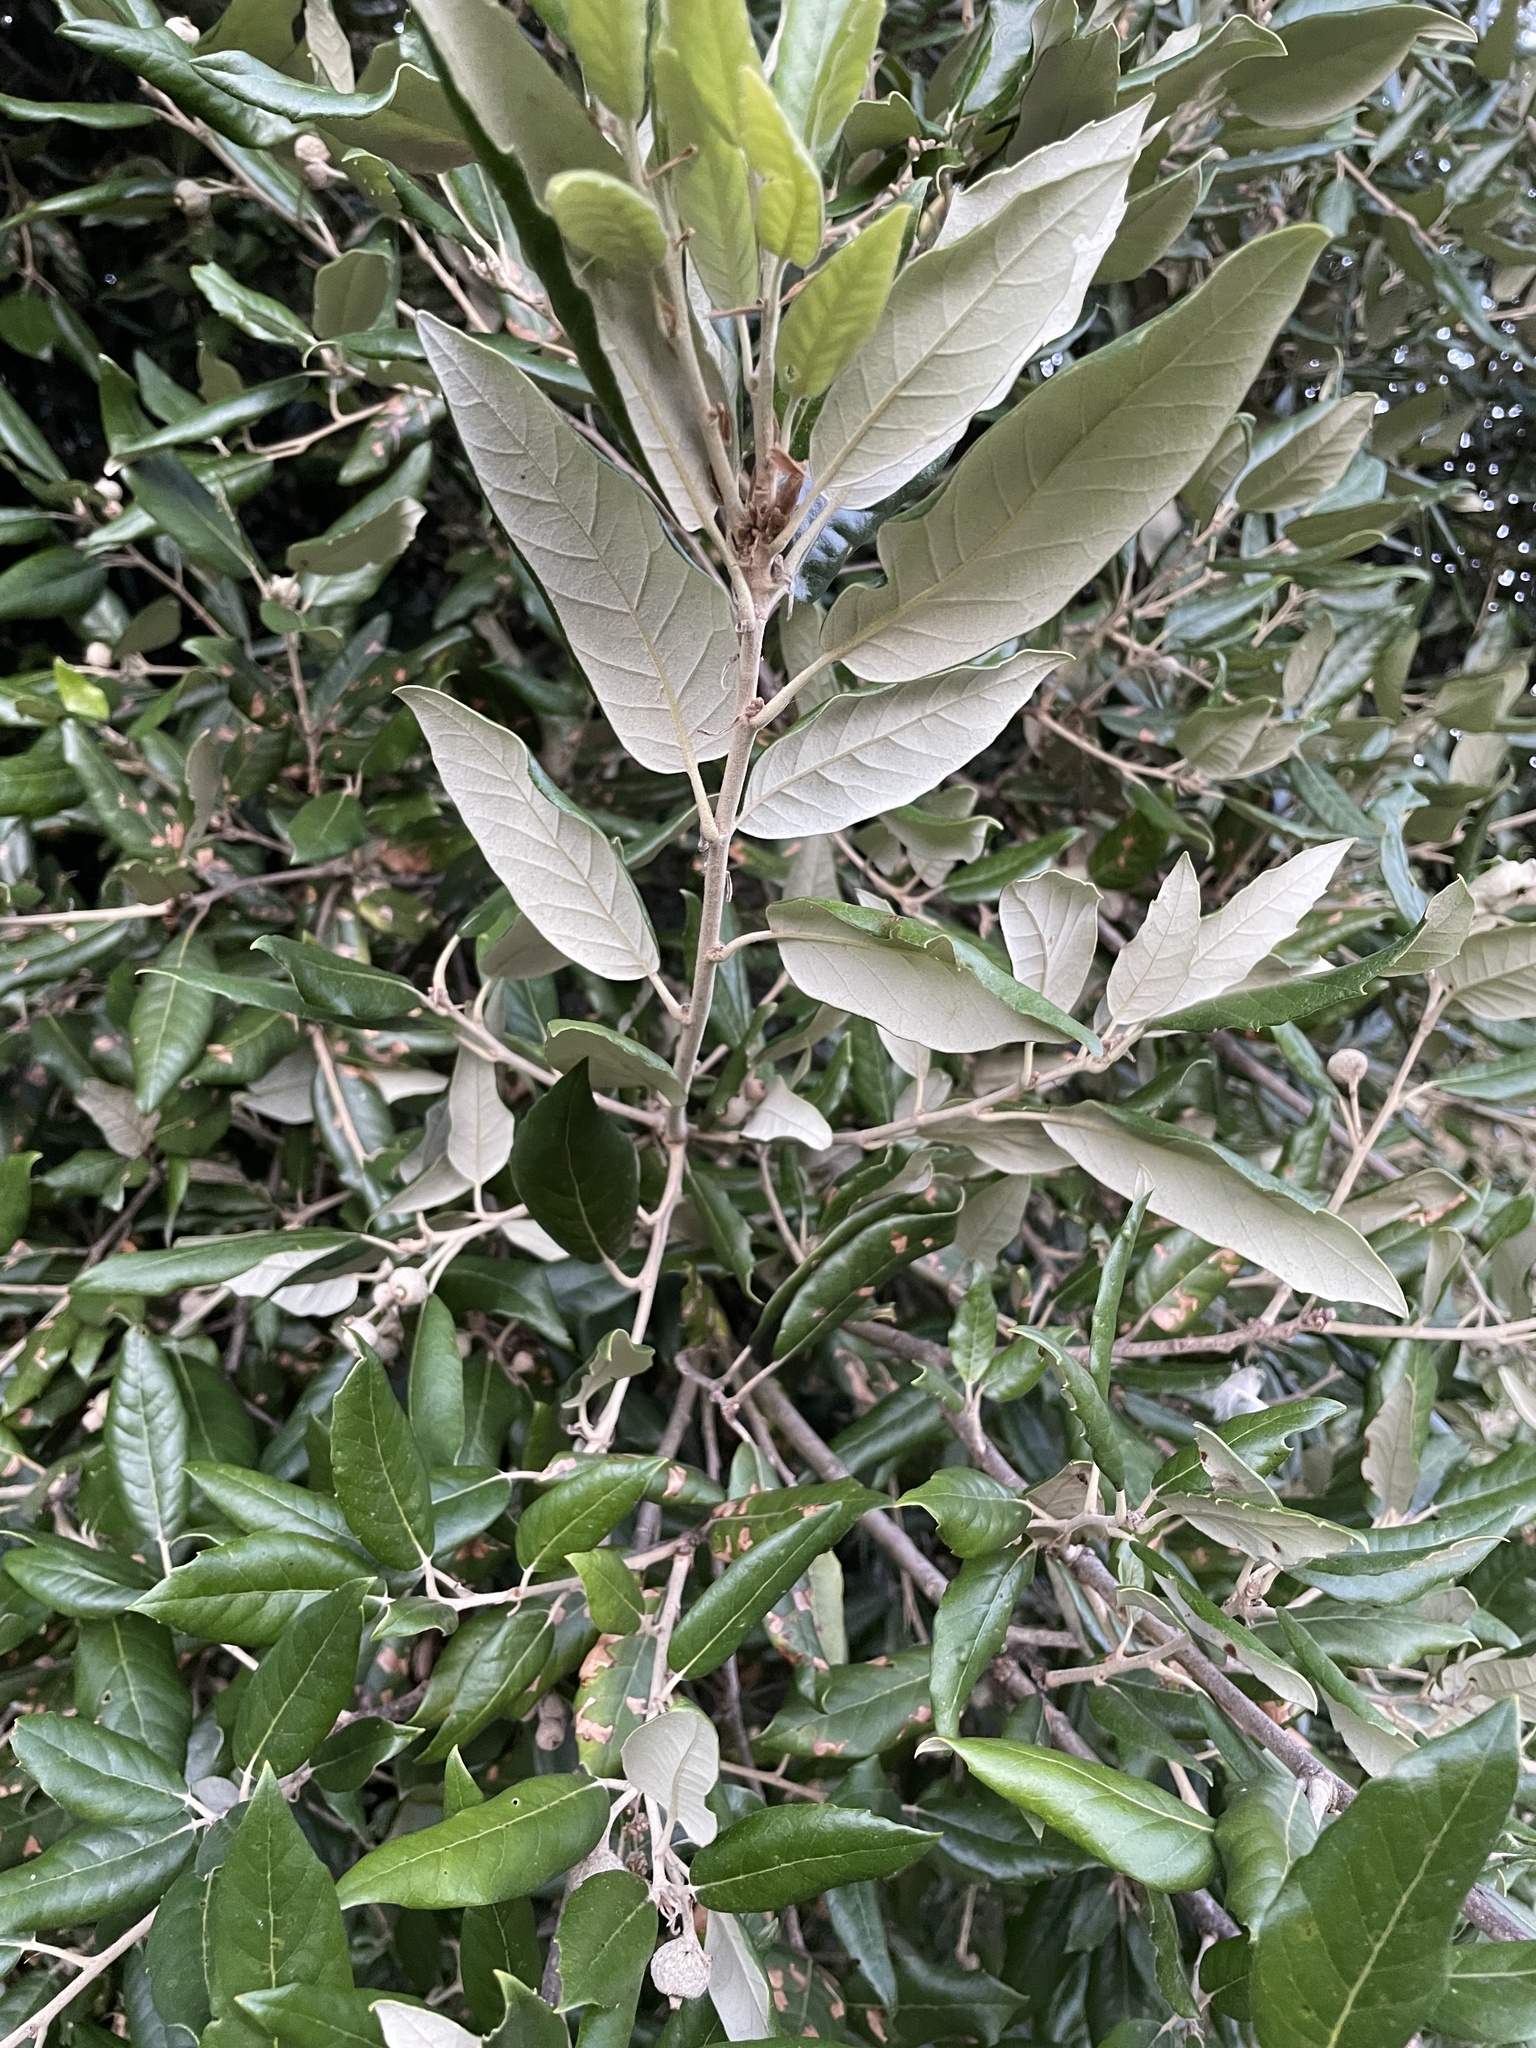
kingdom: Plantae
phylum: Tracheophyta
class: Magnoliopsida
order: Fagales
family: Fagaceae
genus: Quercus
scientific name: Quercus ilex
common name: Evergreen oak
